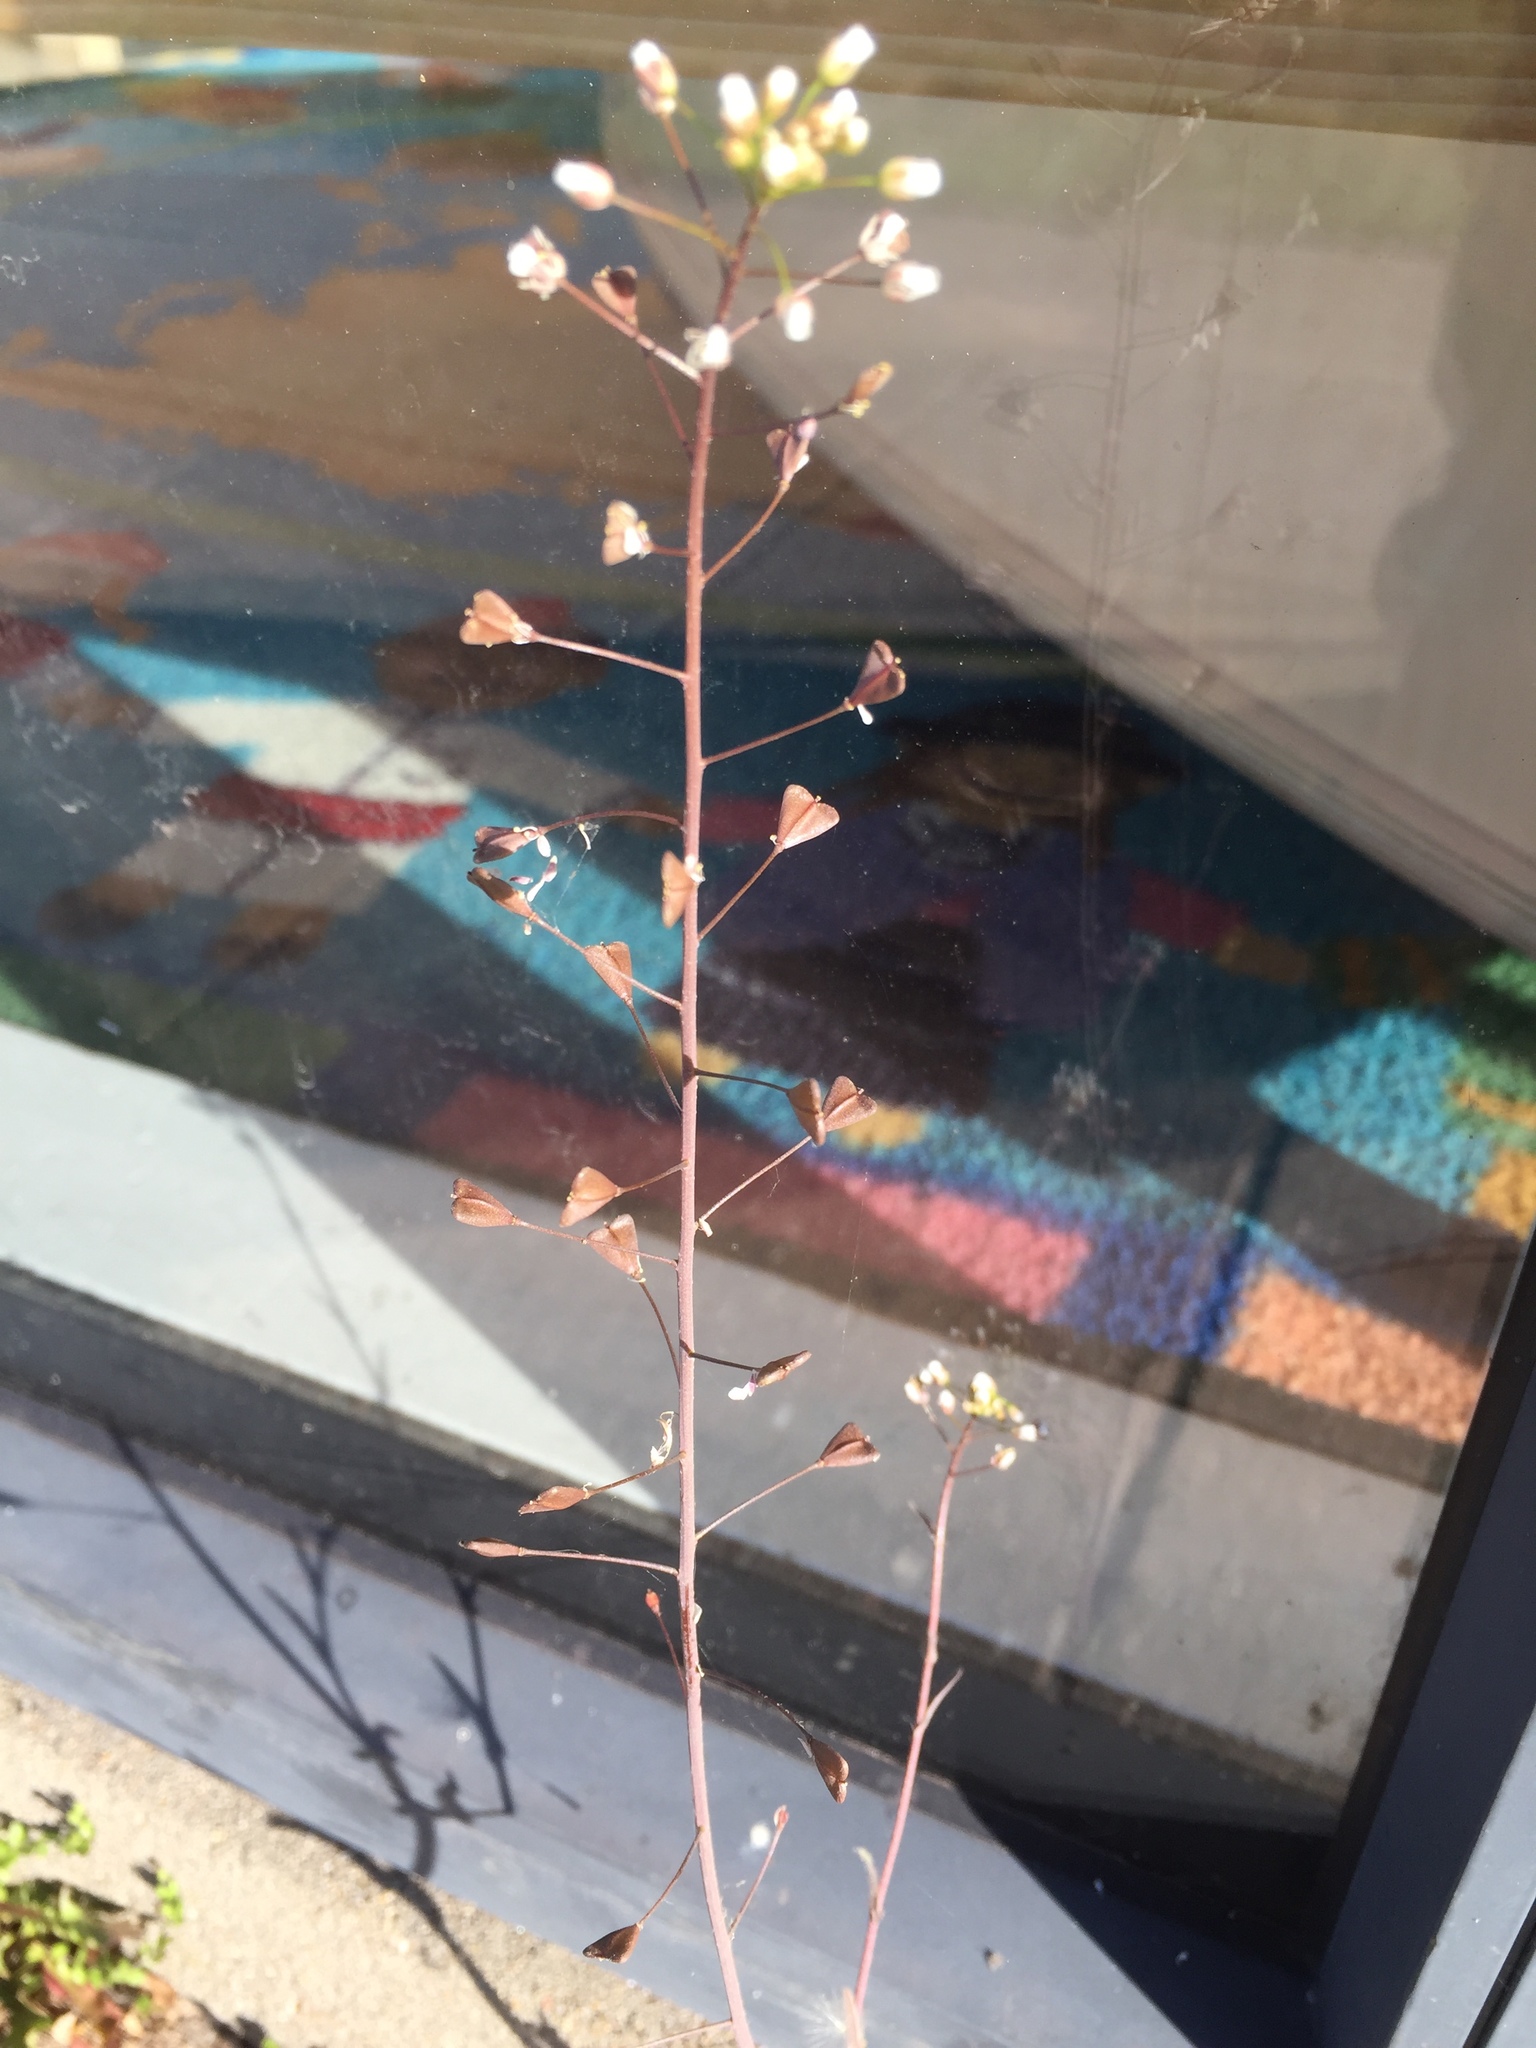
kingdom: Plantae
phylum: Tracheophyta
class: Magnoliopsida
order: Brassicales
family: Brassicaceae
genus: Capsella
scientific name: Capsella bursa-pastoris
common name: Shepherd's purse
